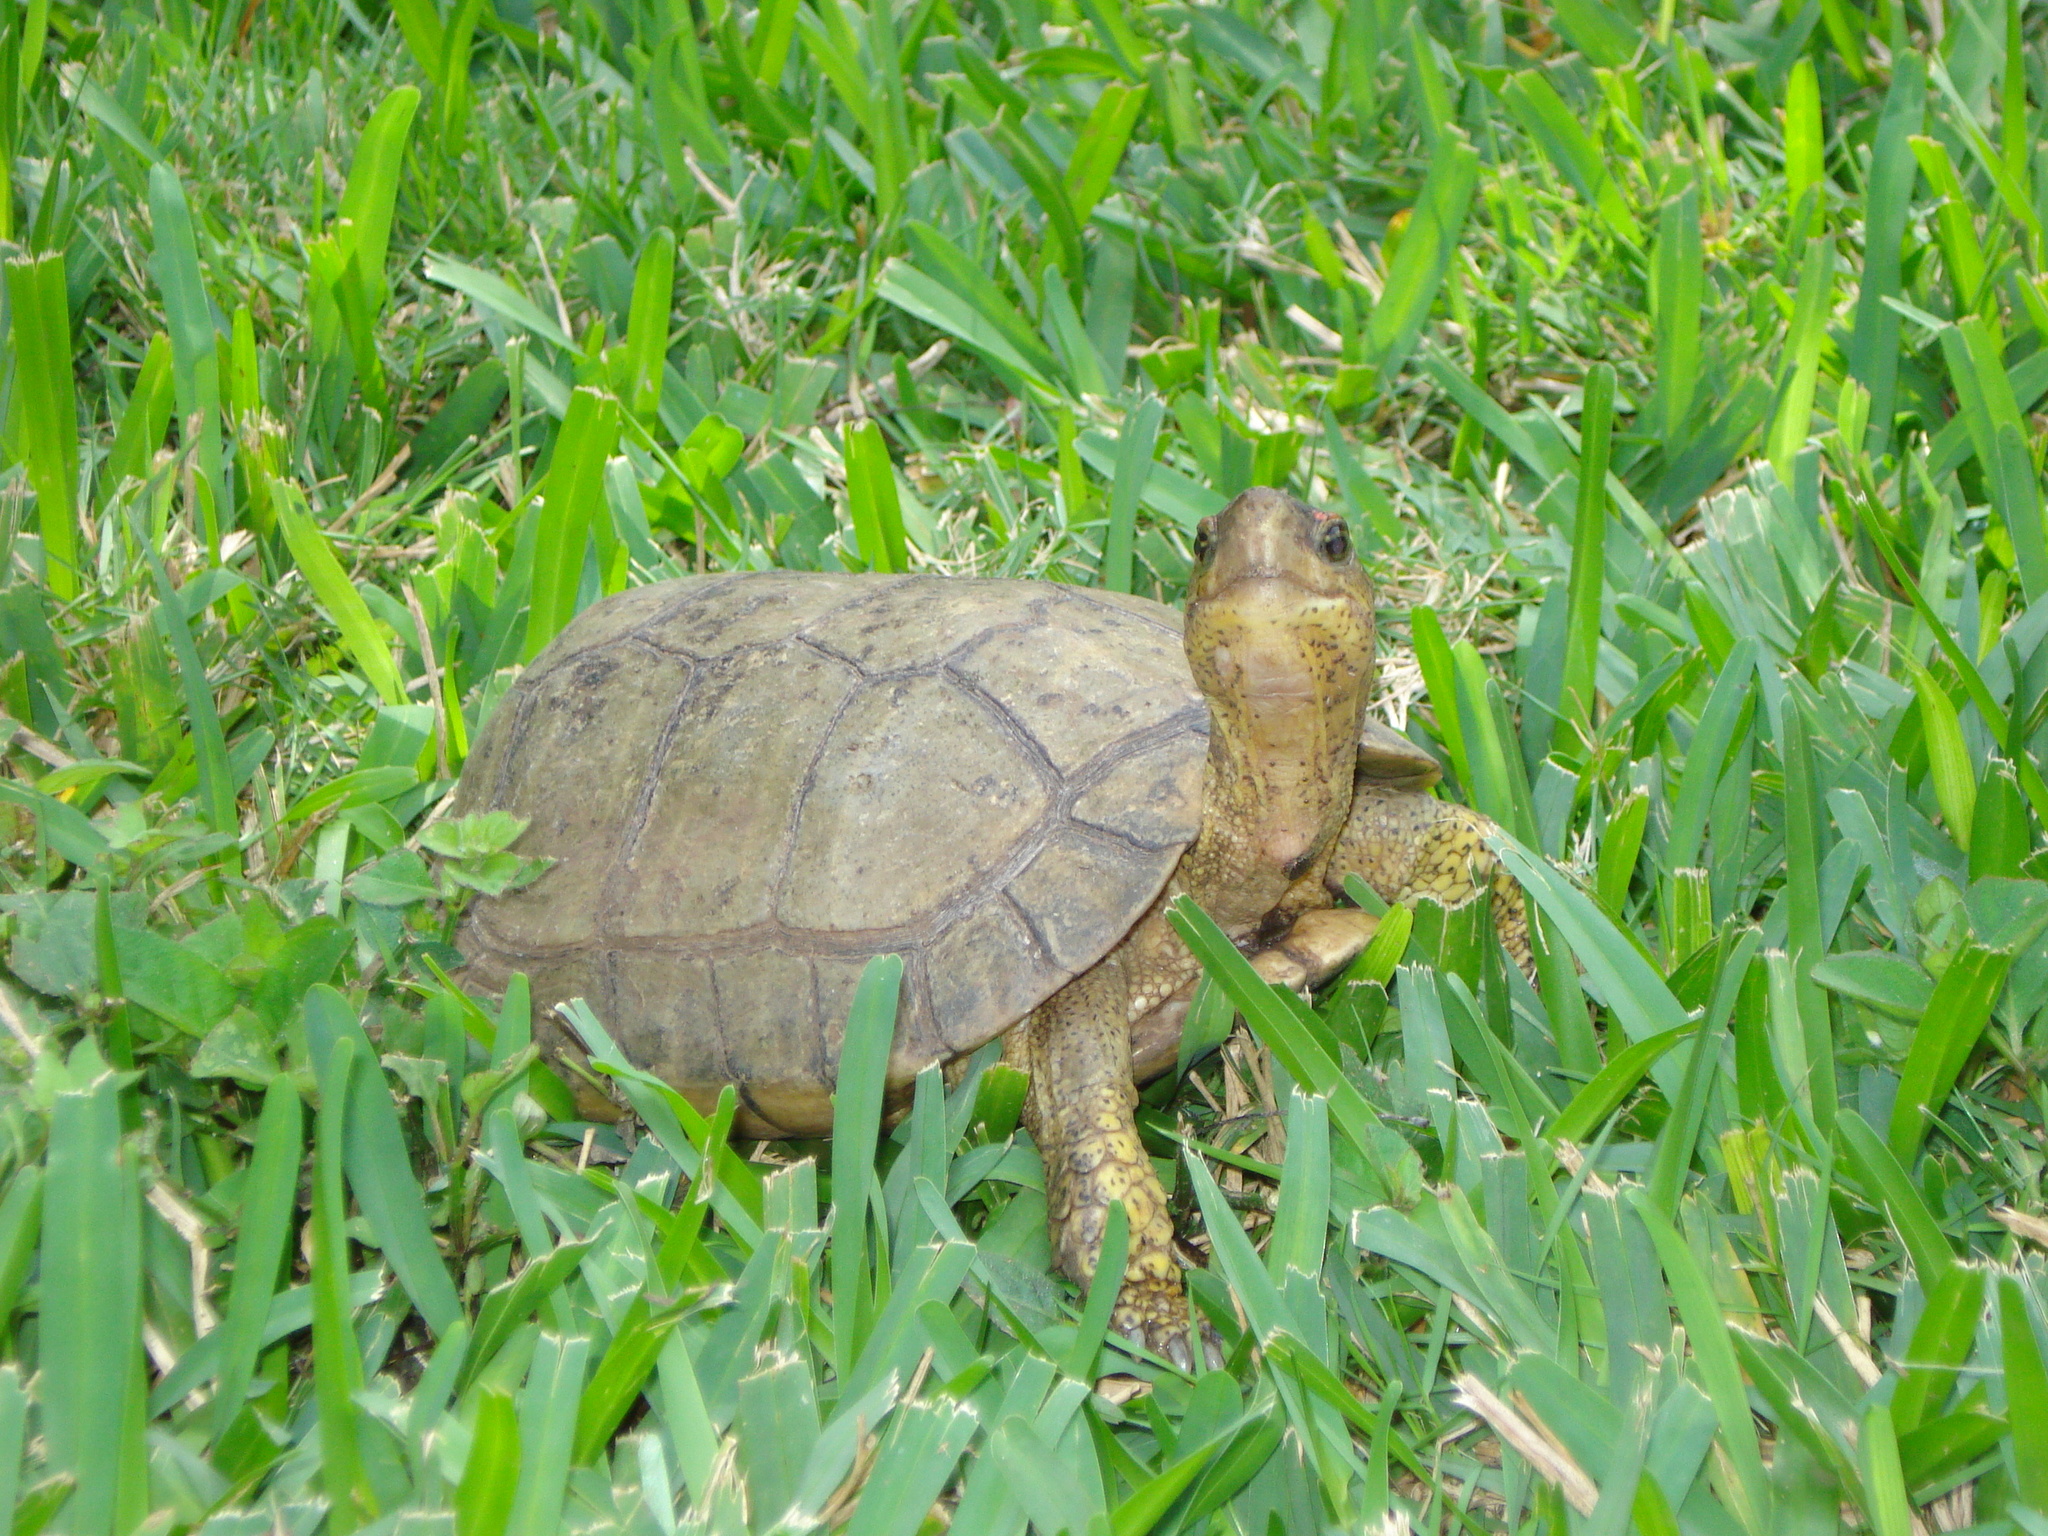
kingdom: Animalia
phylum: Chordata
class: Testudines
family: Geoemydidae
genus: Rhinoclemmys
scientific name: Rhinoclemmys areolata
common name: Furrowed wood turtle
